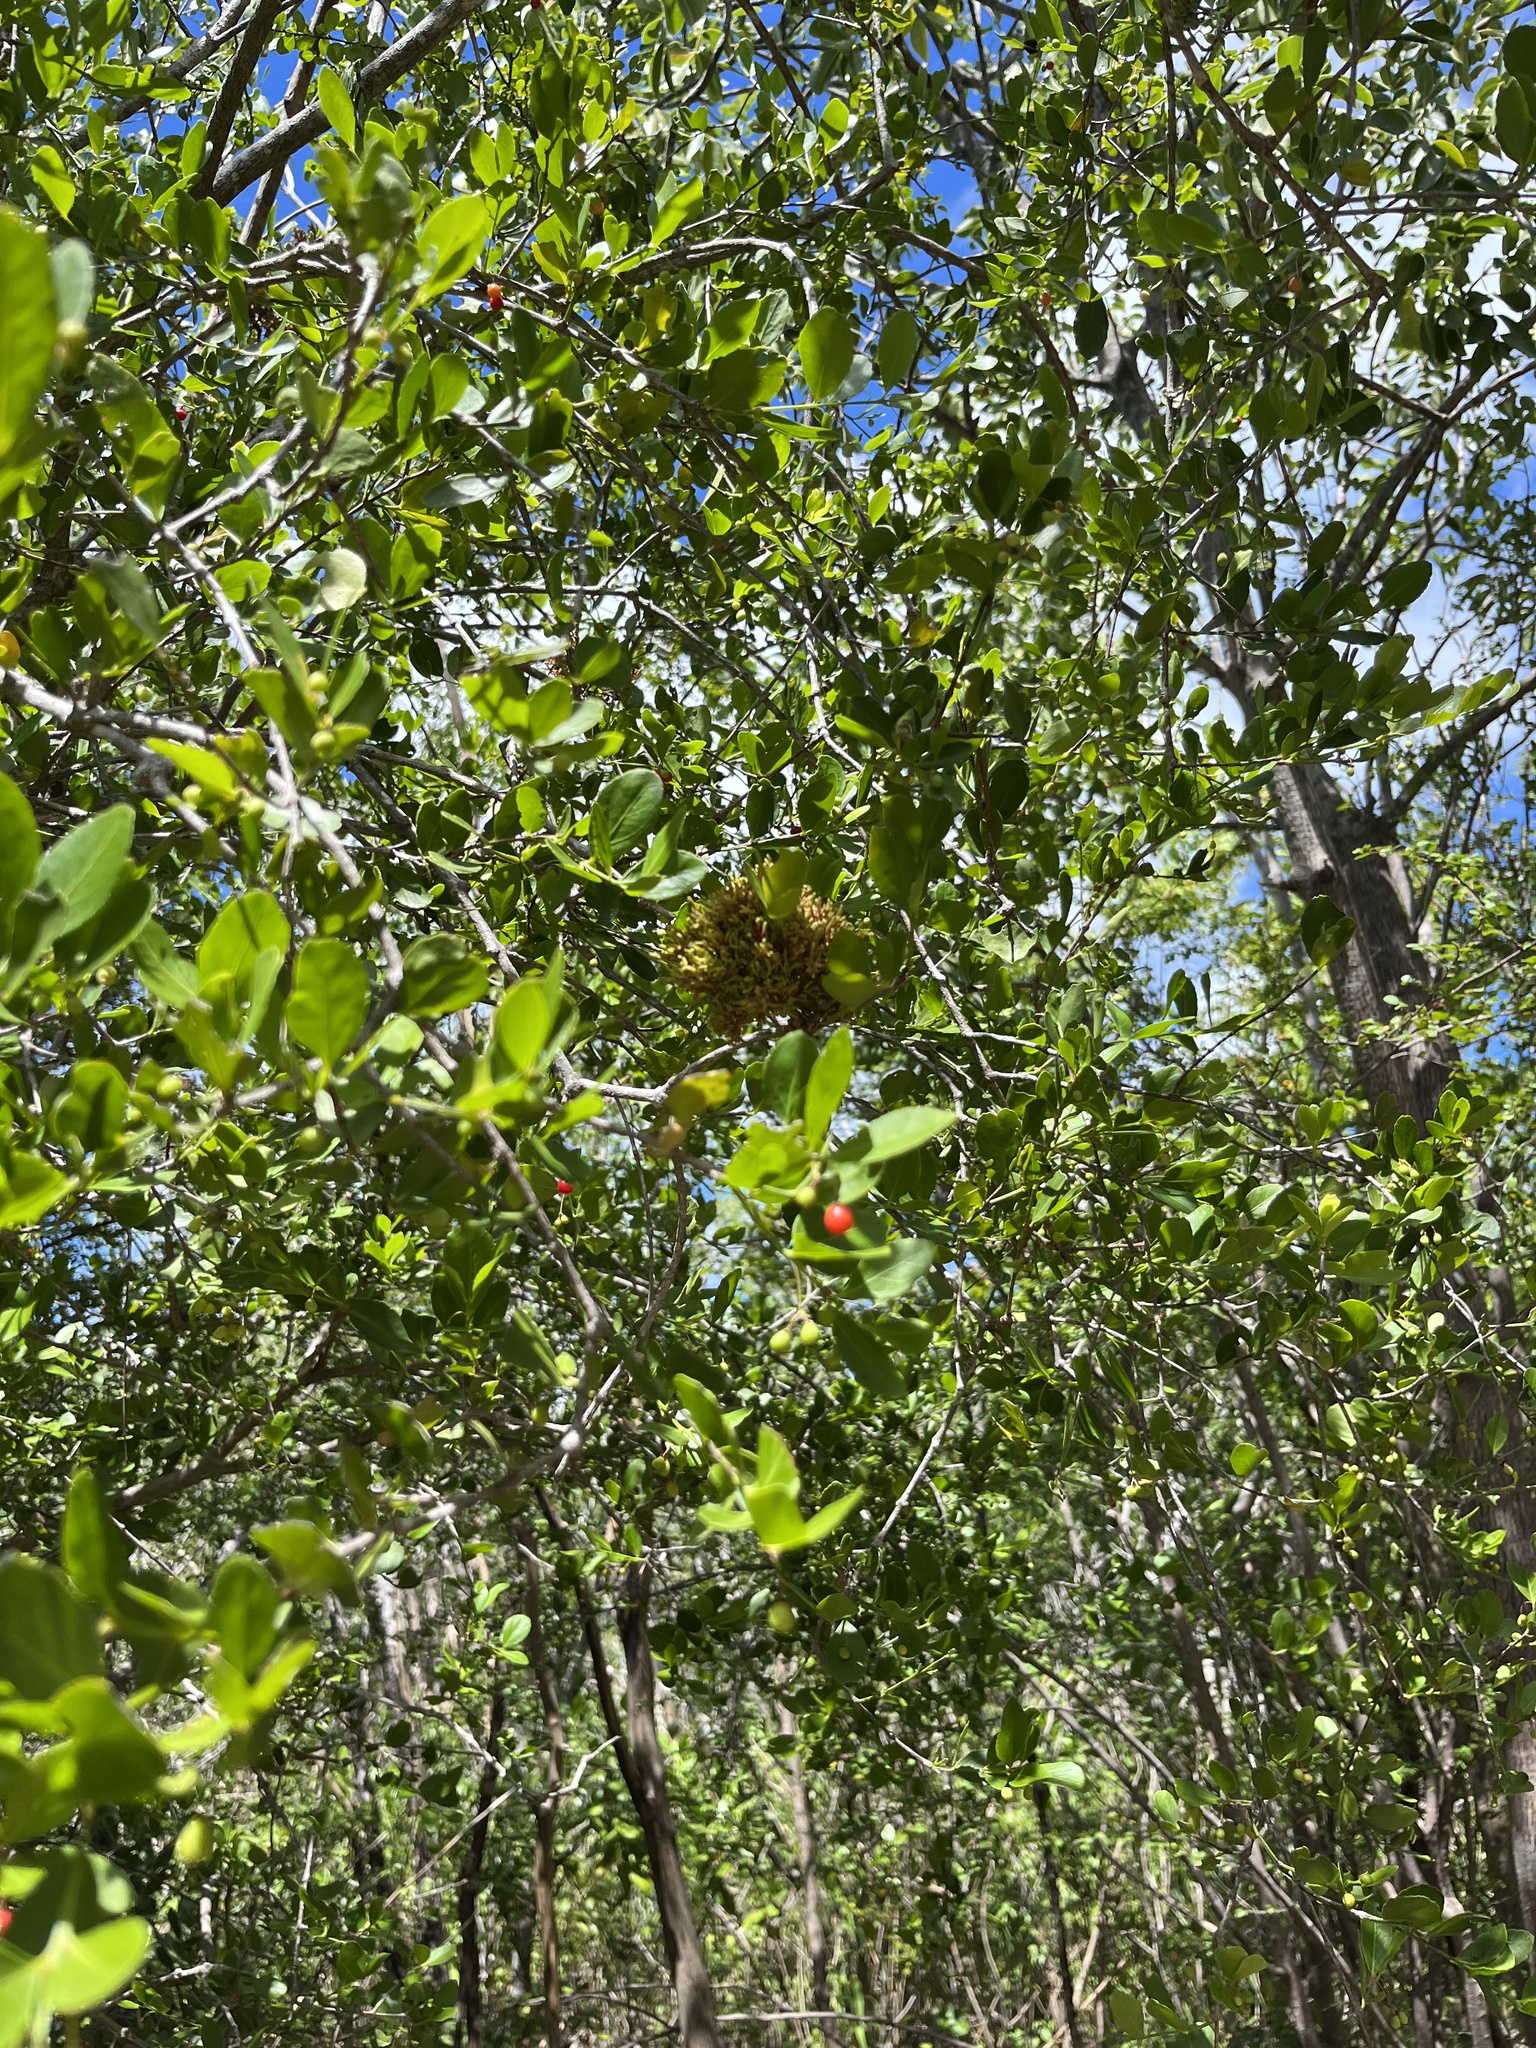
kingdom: Plantae
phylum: Tracheophyta
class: Magnoliopsida
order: Celastrales
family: Celastraceae
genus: Crossopetalum
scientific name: Crossopetalum rhacoma
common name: Maidenberry
